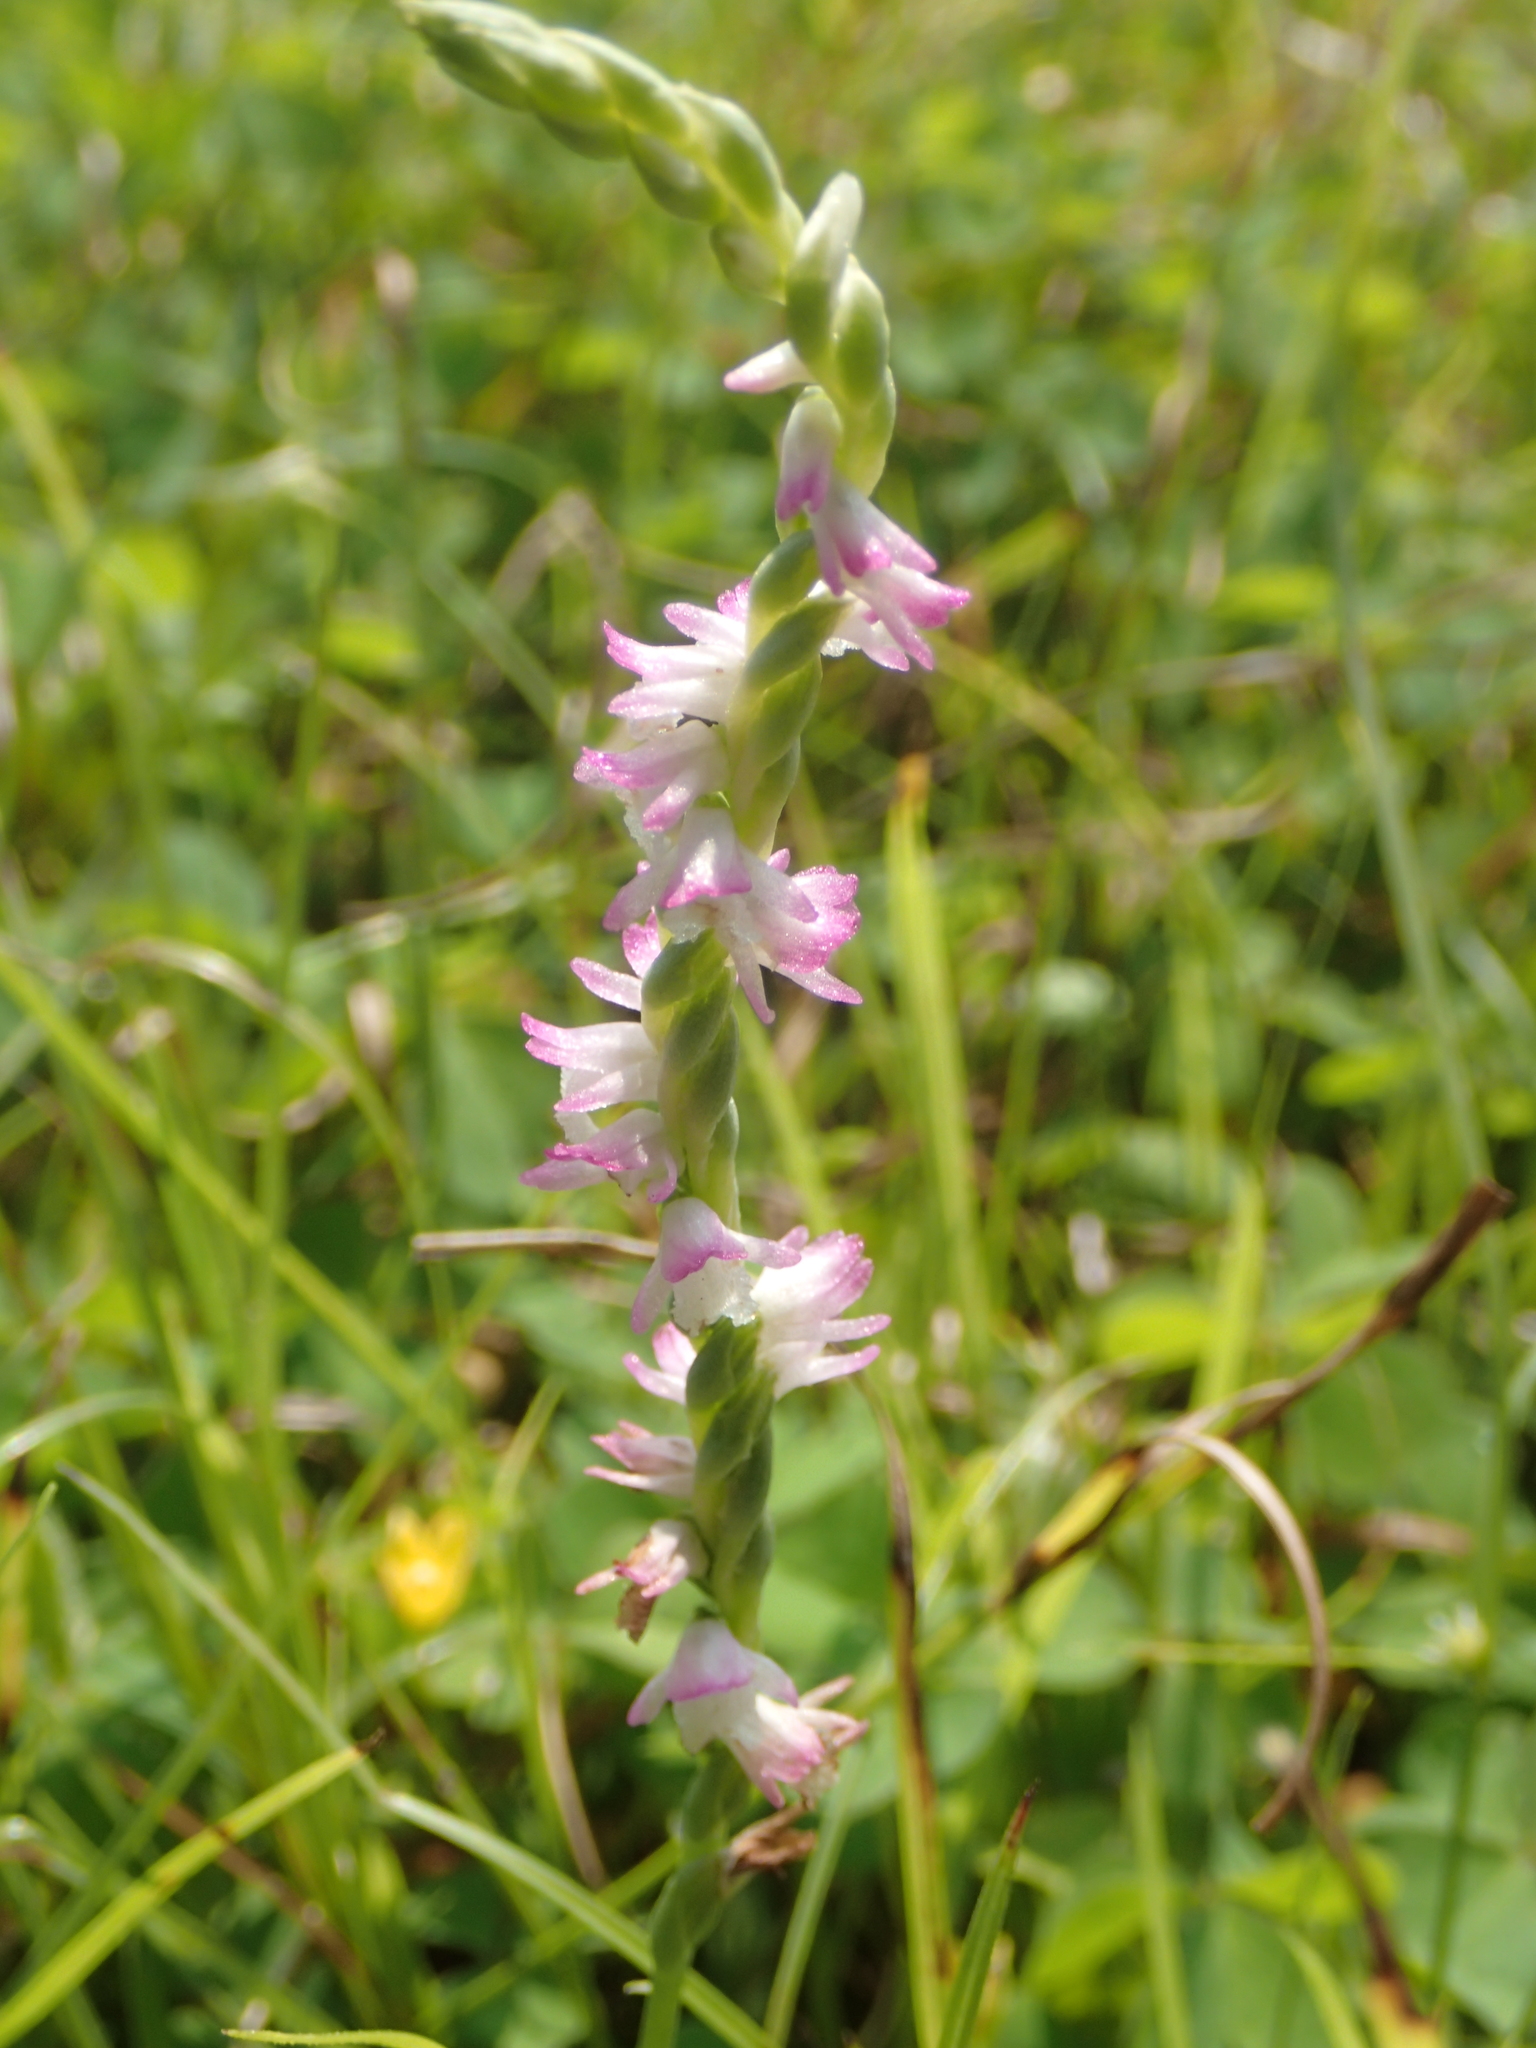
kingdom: Plantae
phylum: Tracheophyta
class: Liliopsida
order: Asparagales
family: Orchidaceae
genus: Spiranthes
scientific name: Spiranthes sinensis
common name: Chinese spiranthes
